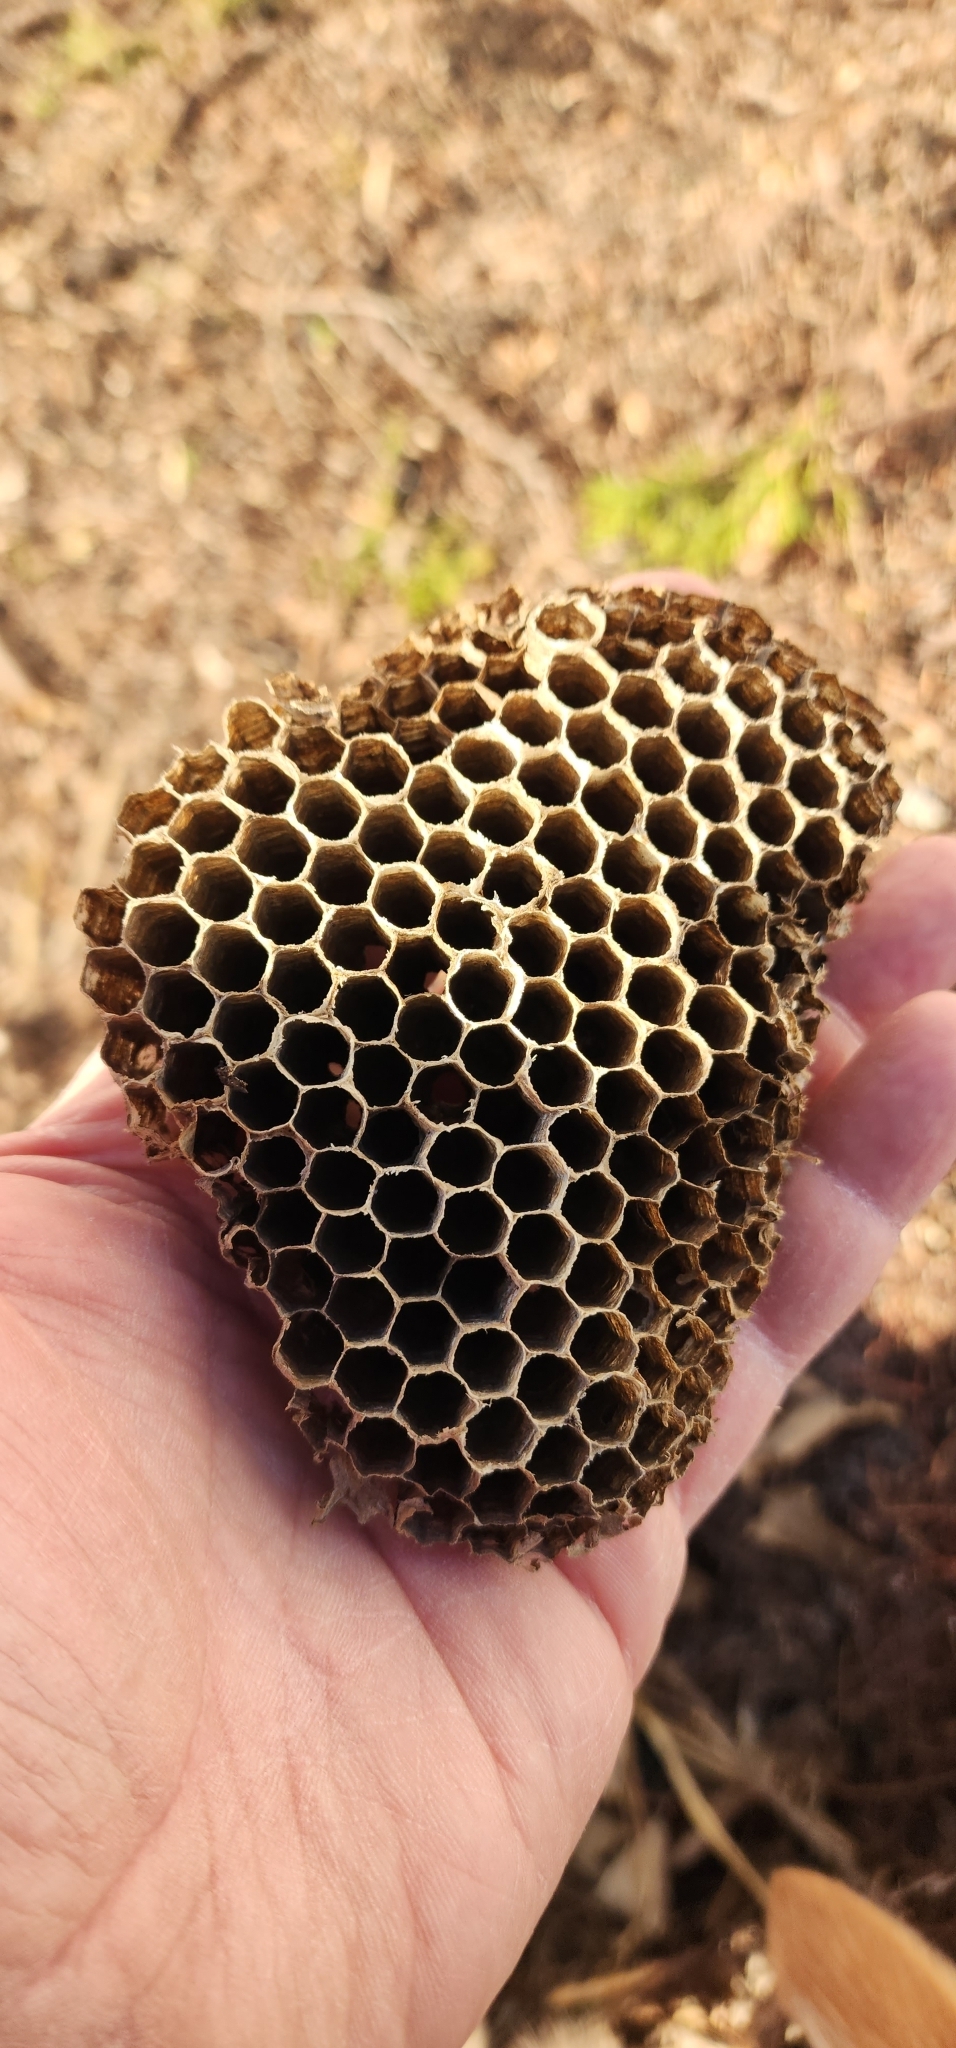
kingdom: Animalia
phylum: Arthropoda
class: Insecta
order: Hymenoptera
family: Eumenidae
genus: Polistes
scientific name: Polistes
